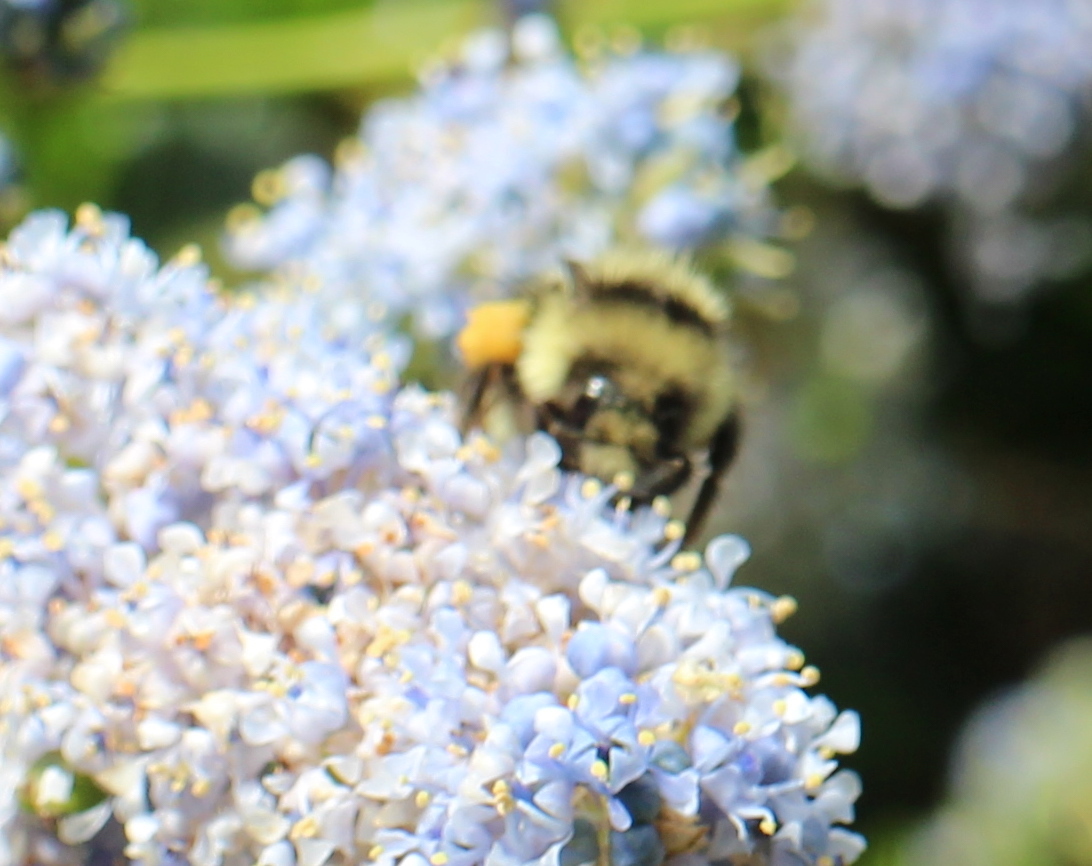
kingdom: Animalia
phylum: Arthropoda
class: Insecta
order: Hymenoptera
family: Apidae
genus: Bombus
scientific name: Bombus melanopygus
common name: Black tail bumble bee
